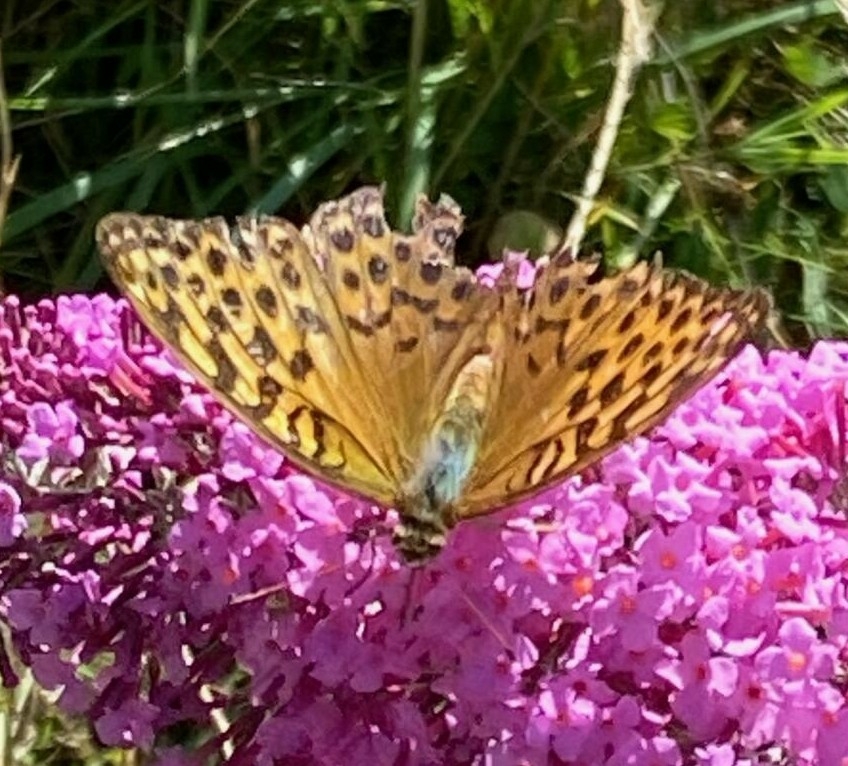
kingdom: Animalia
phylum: Arthropoda
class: Insecta
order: Lepidoptera
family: Nymphalidae
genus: Argynnis
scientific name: Argynnis paphia
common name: Silver-washed fritillary
